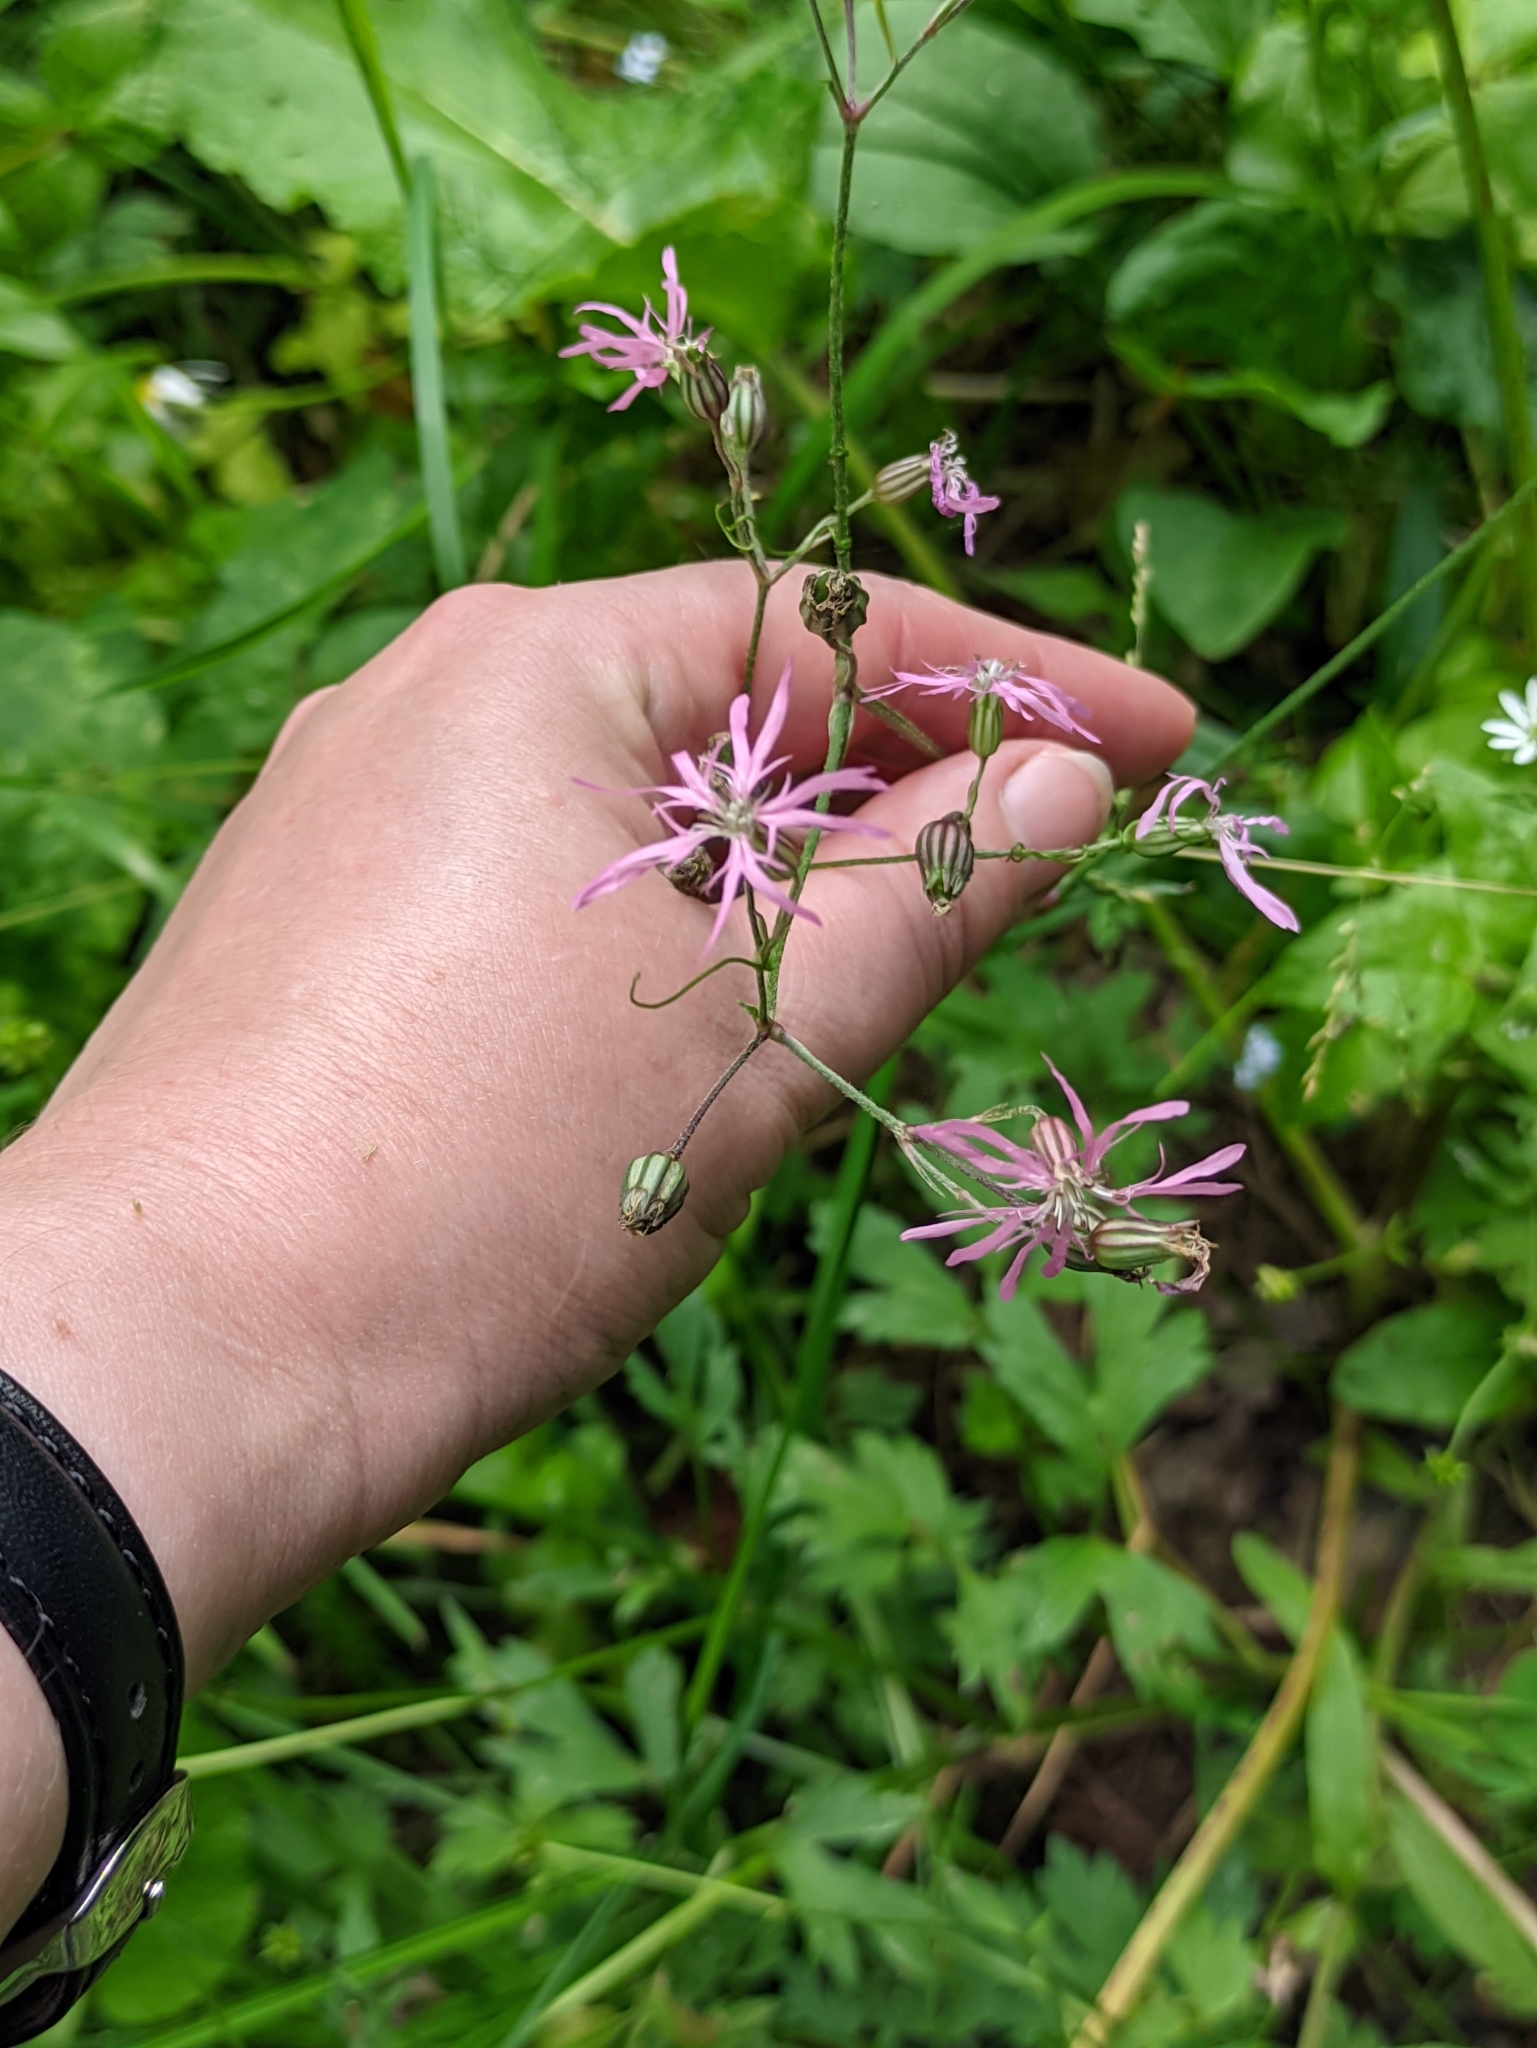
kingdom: Plantae
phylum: Tracheophyta
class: Magnoliopsida
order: Caryophyllales
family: Caryophyllaceae
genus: Silene
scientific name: Silene flos-cuculi
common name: Ragged-robin
